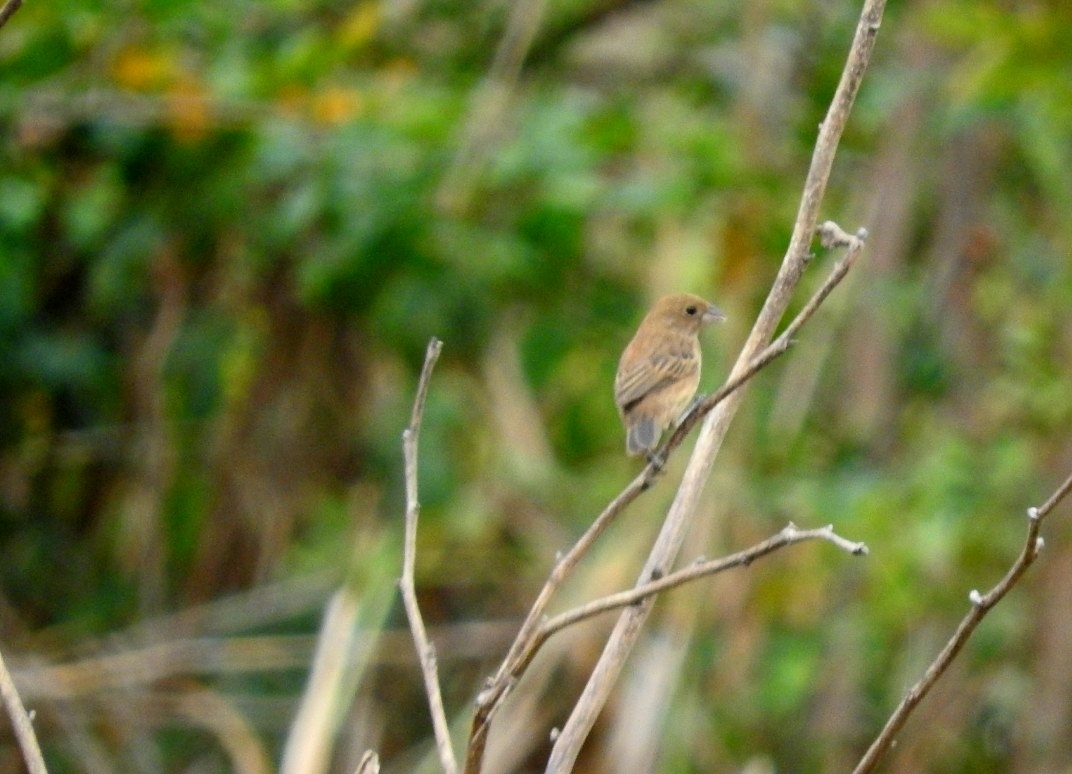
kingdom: Animalia
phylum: Chordata
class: Aves
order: Passeriformes
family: Thraupidae
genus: Volatinia
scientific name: Volatinia jacarina
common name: Blue-black grassquit
